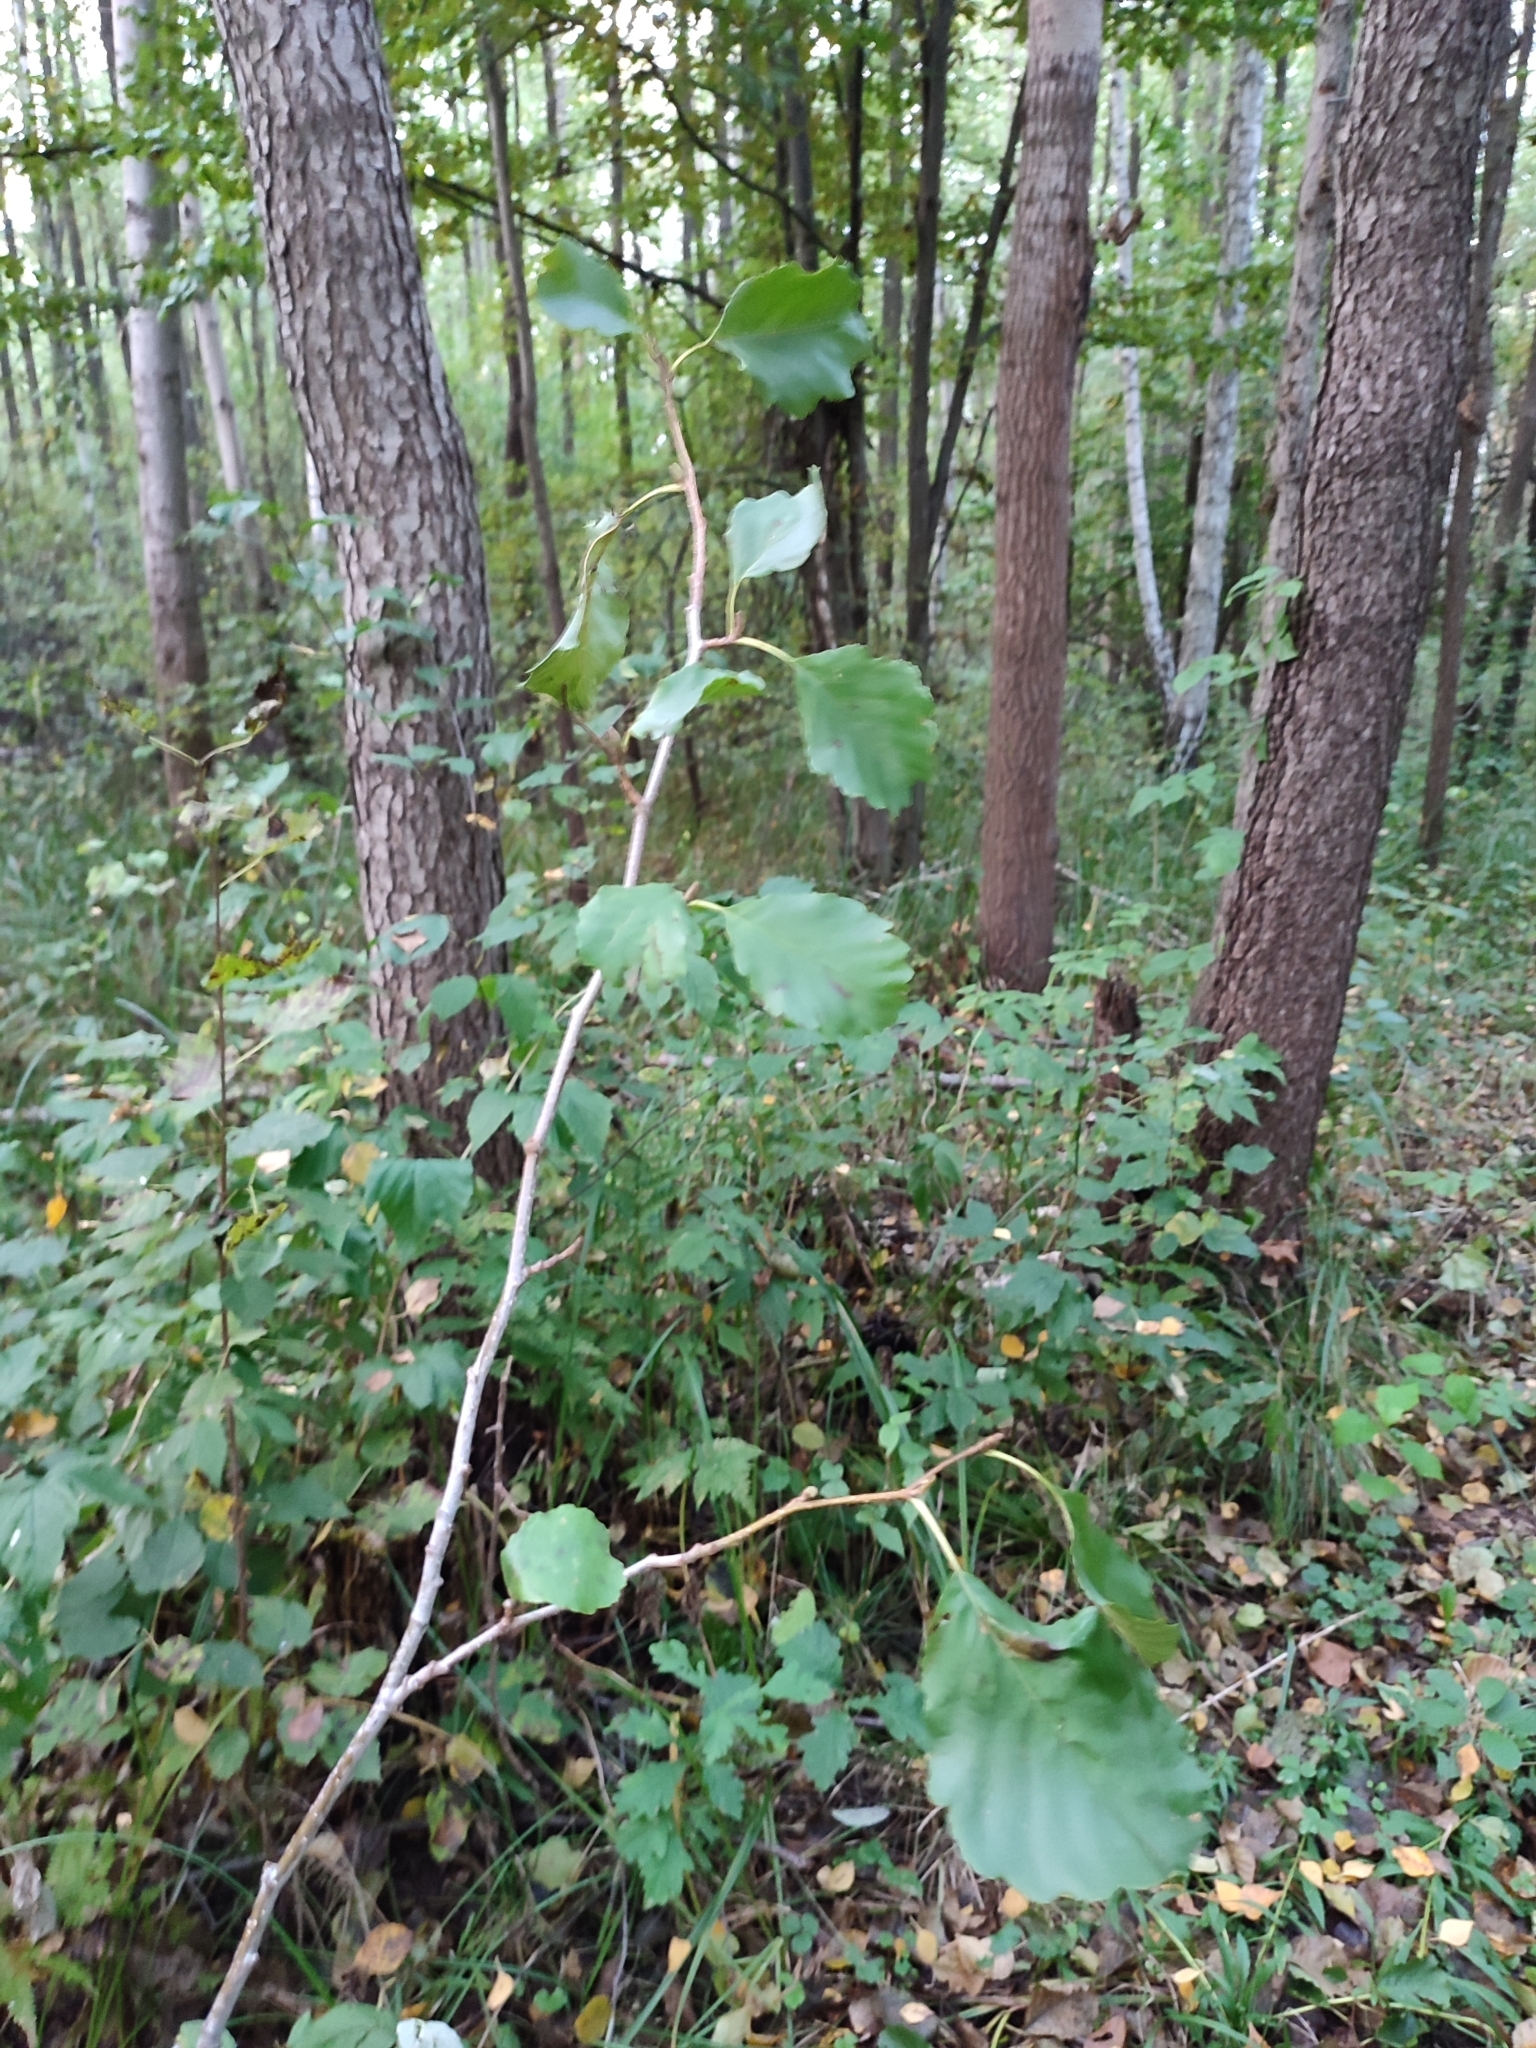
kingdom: Plantae
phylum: Tracheophyta
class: Magnoliopsida
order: Fagales
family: Betulaceae
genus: Alnus
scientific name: Alnus glutinosa
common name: Black alder
